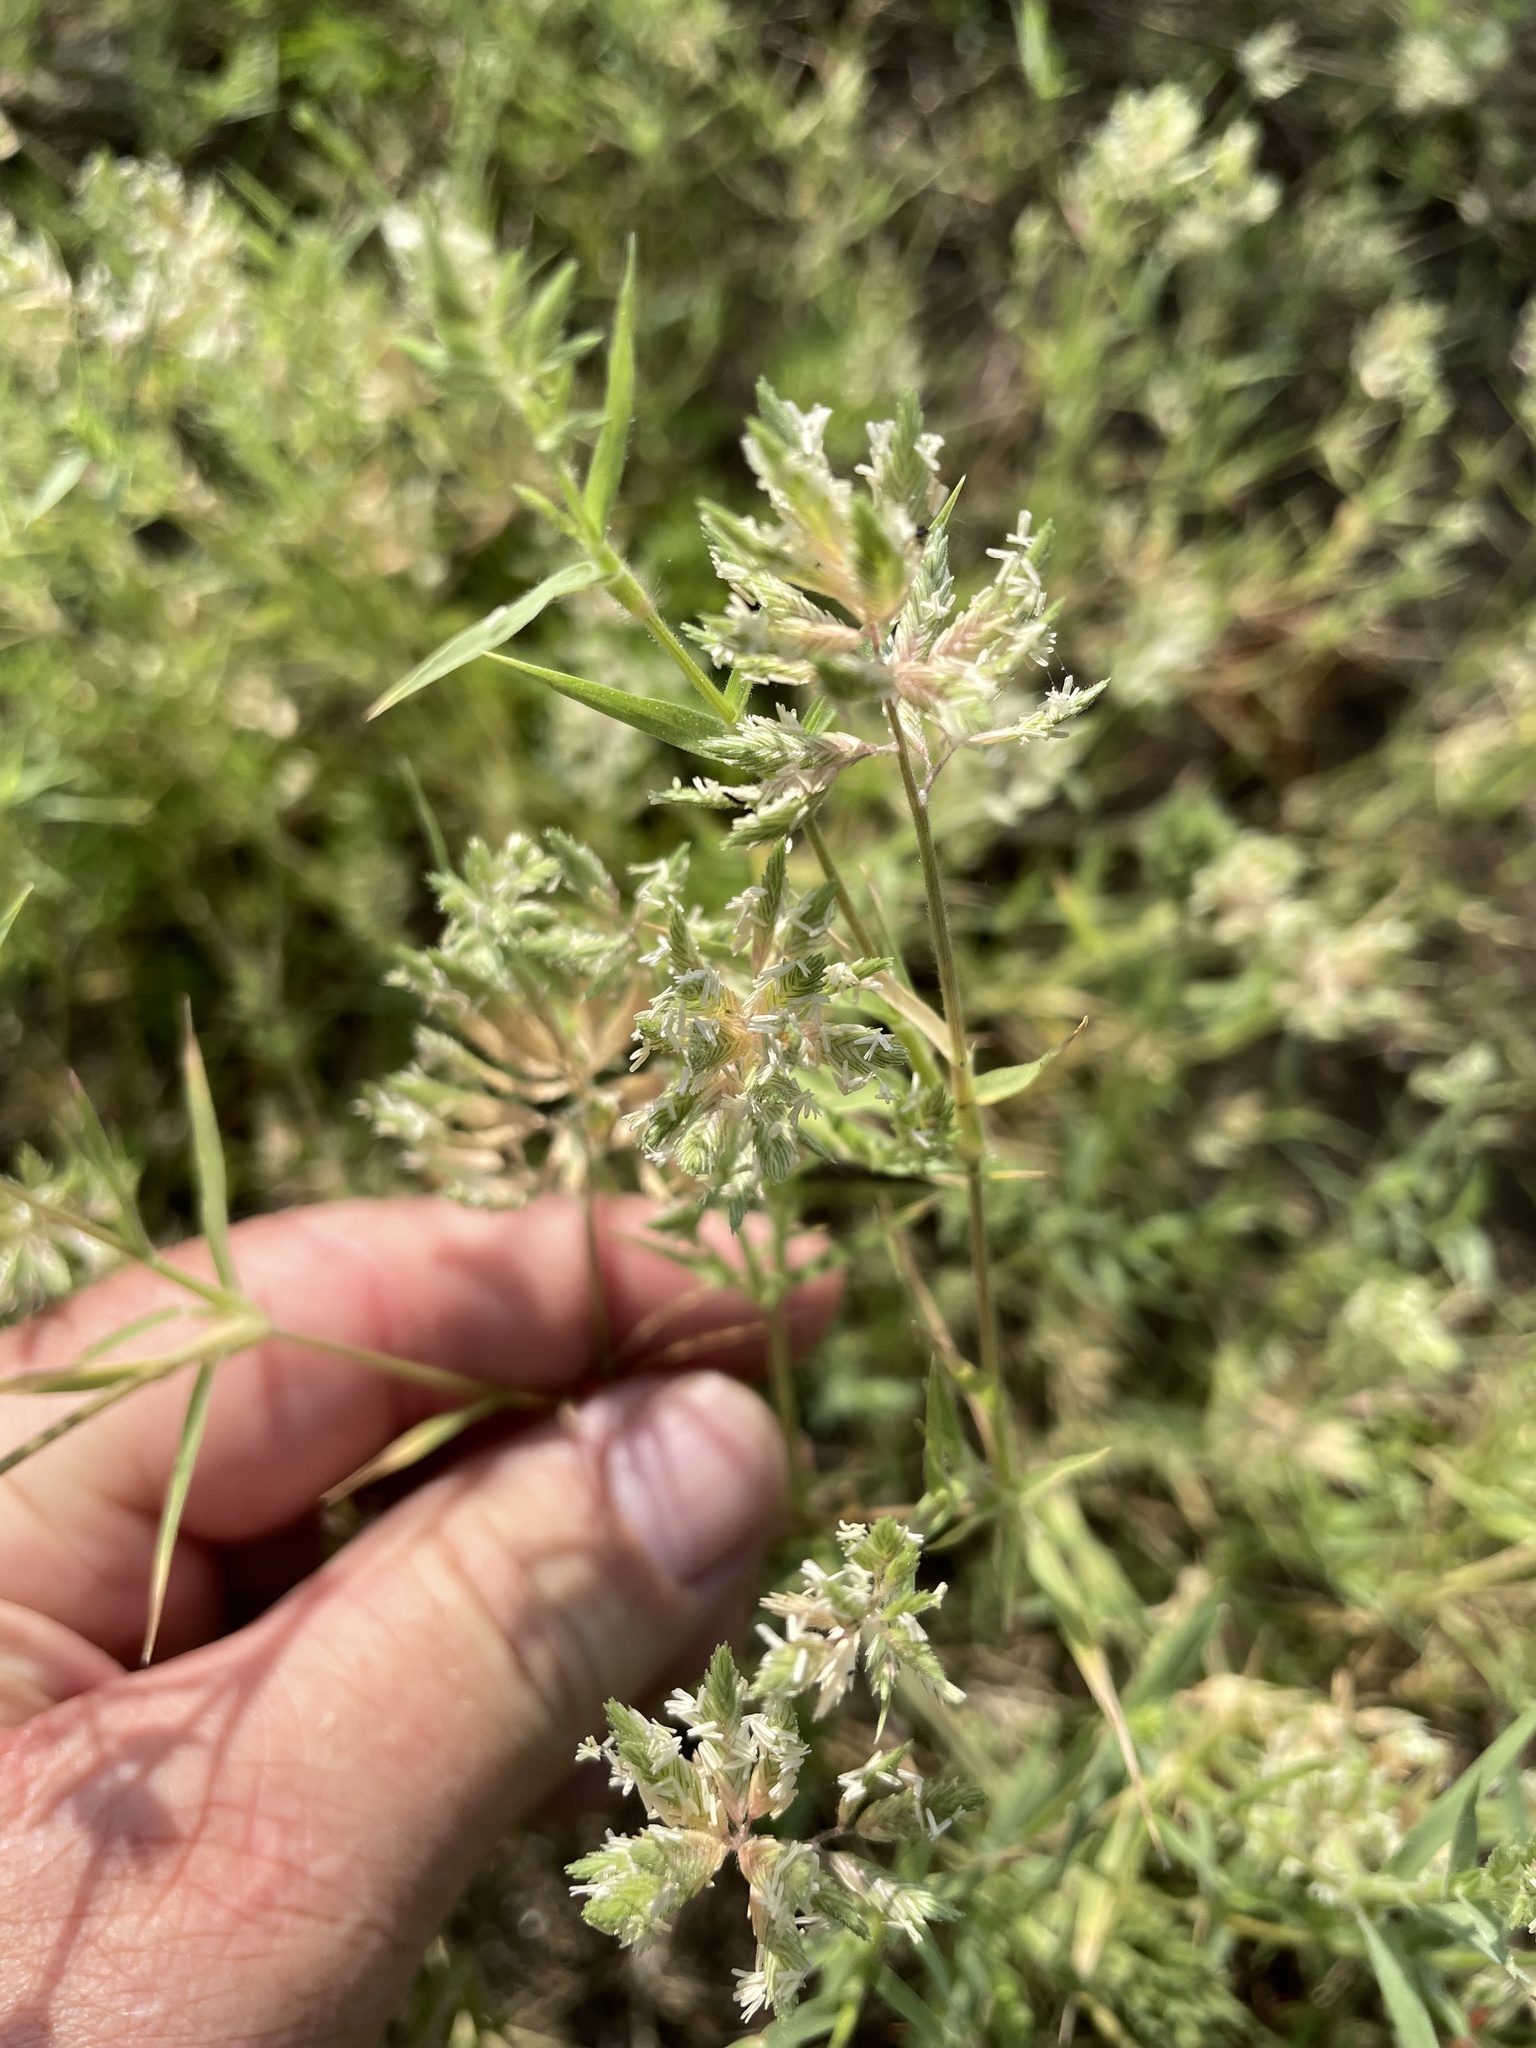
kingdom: Plantae
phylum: Tracheophyta
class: Liliopsida
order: Poales
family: Poaceae
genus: Eragrostis
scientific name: Eragrostis reptans
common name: Creeping love grass
